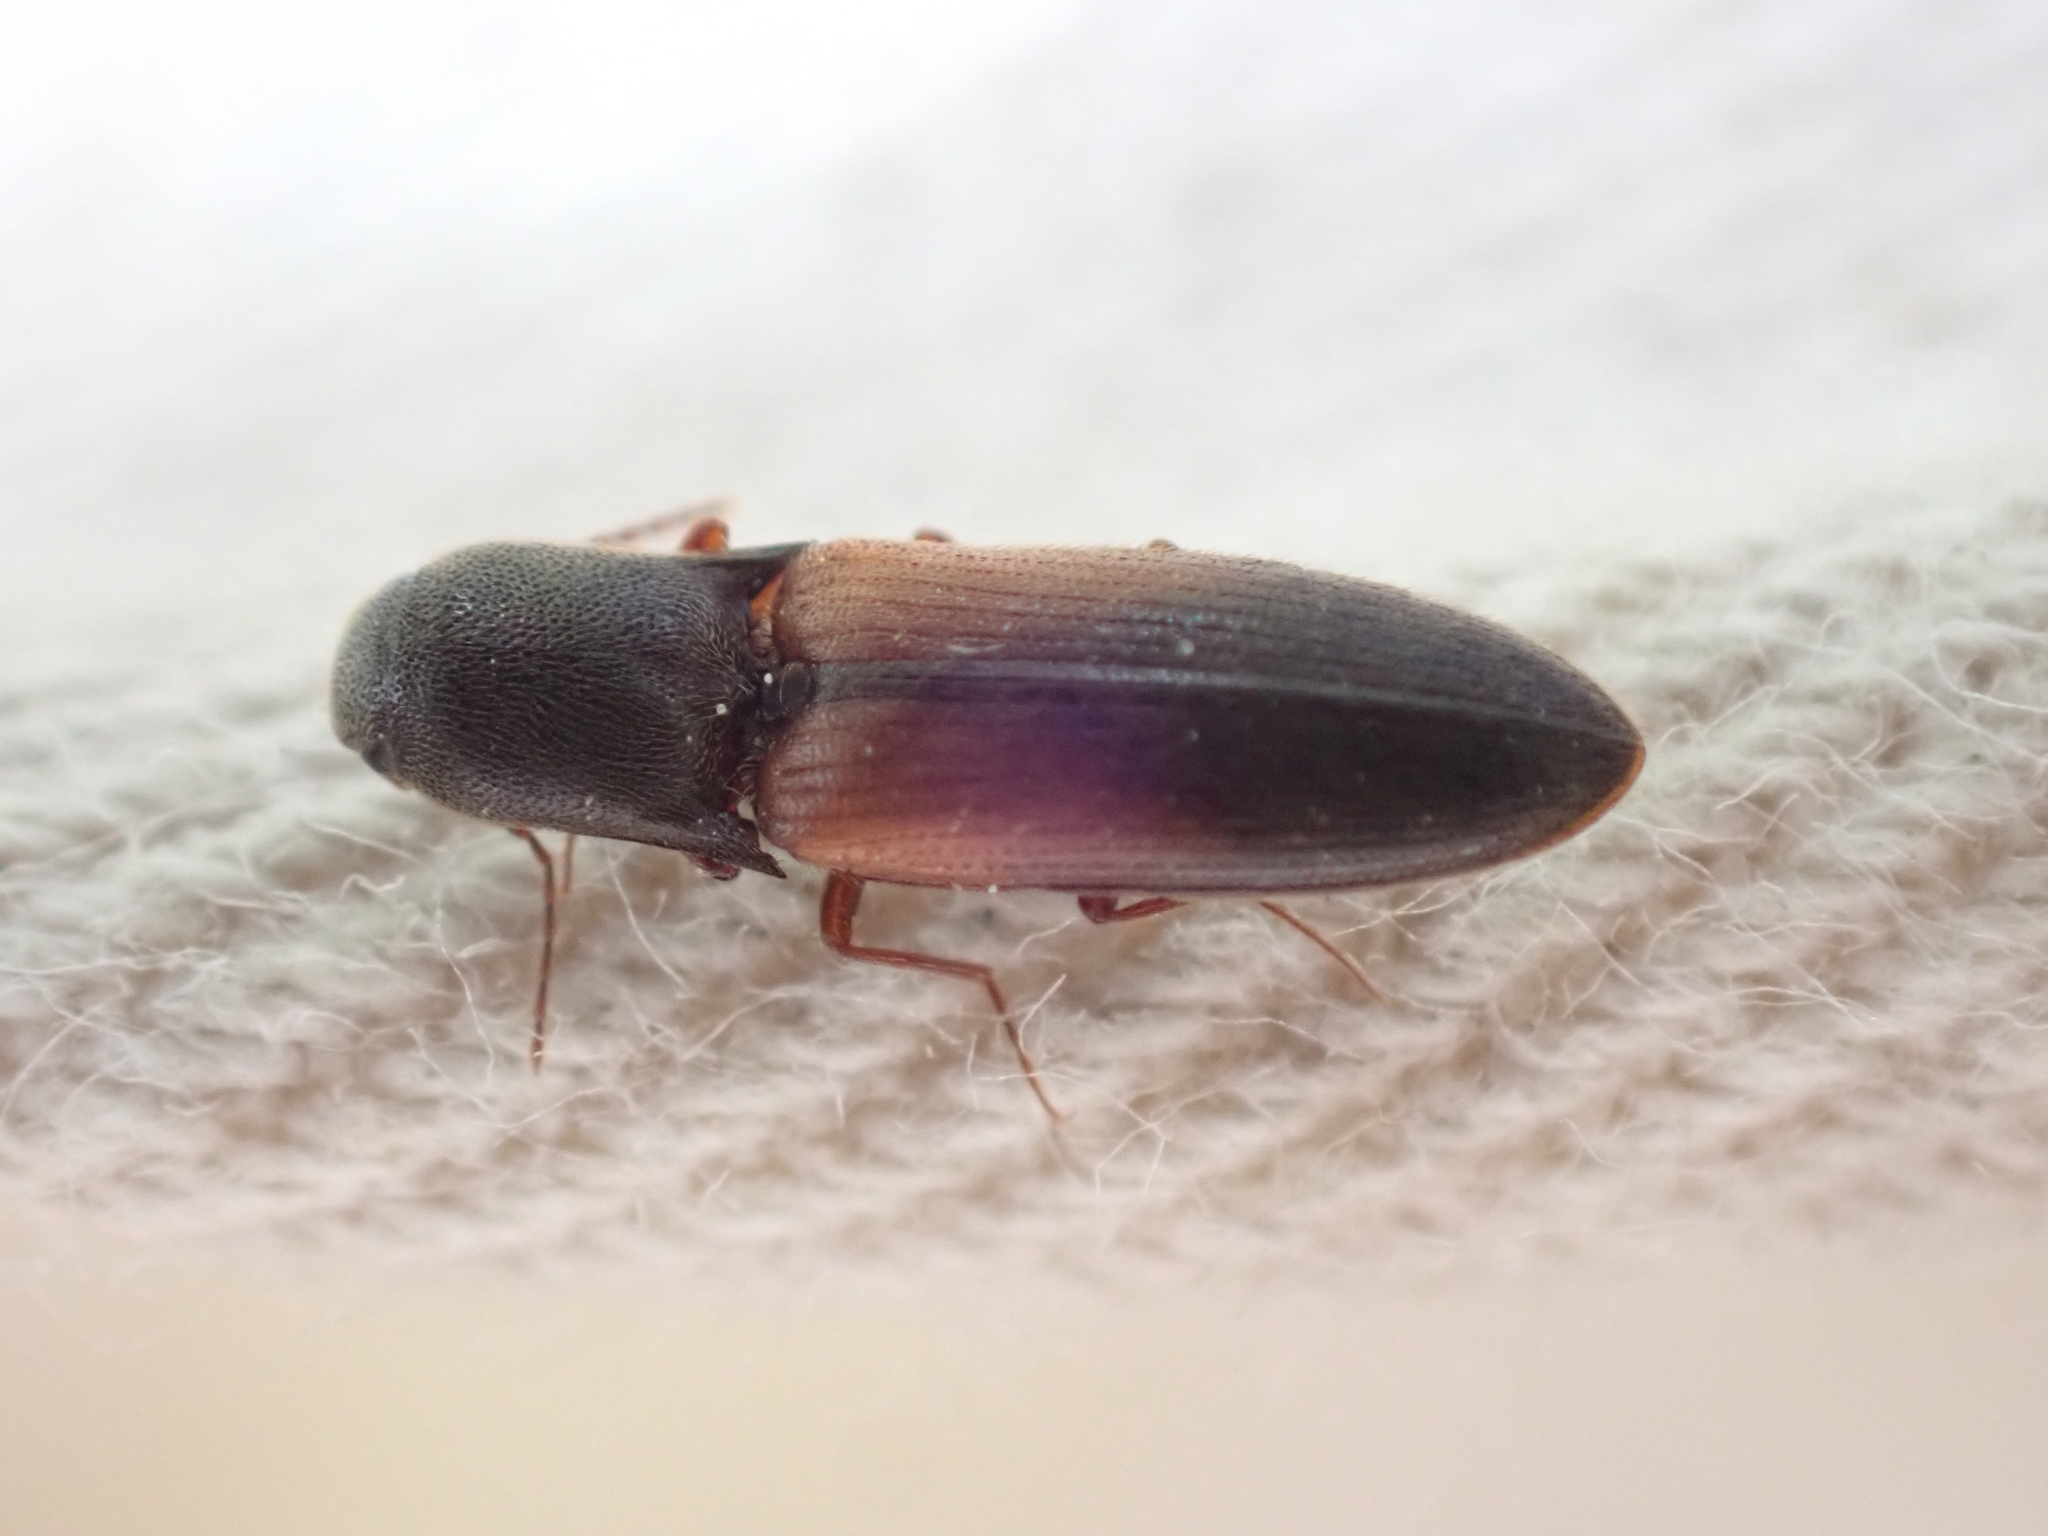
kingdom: Animalia
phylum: Arthropoda
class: Insecta
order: Coleoptera
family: Elateridae
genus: Agriotes
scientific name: Agriotes thevenetii
